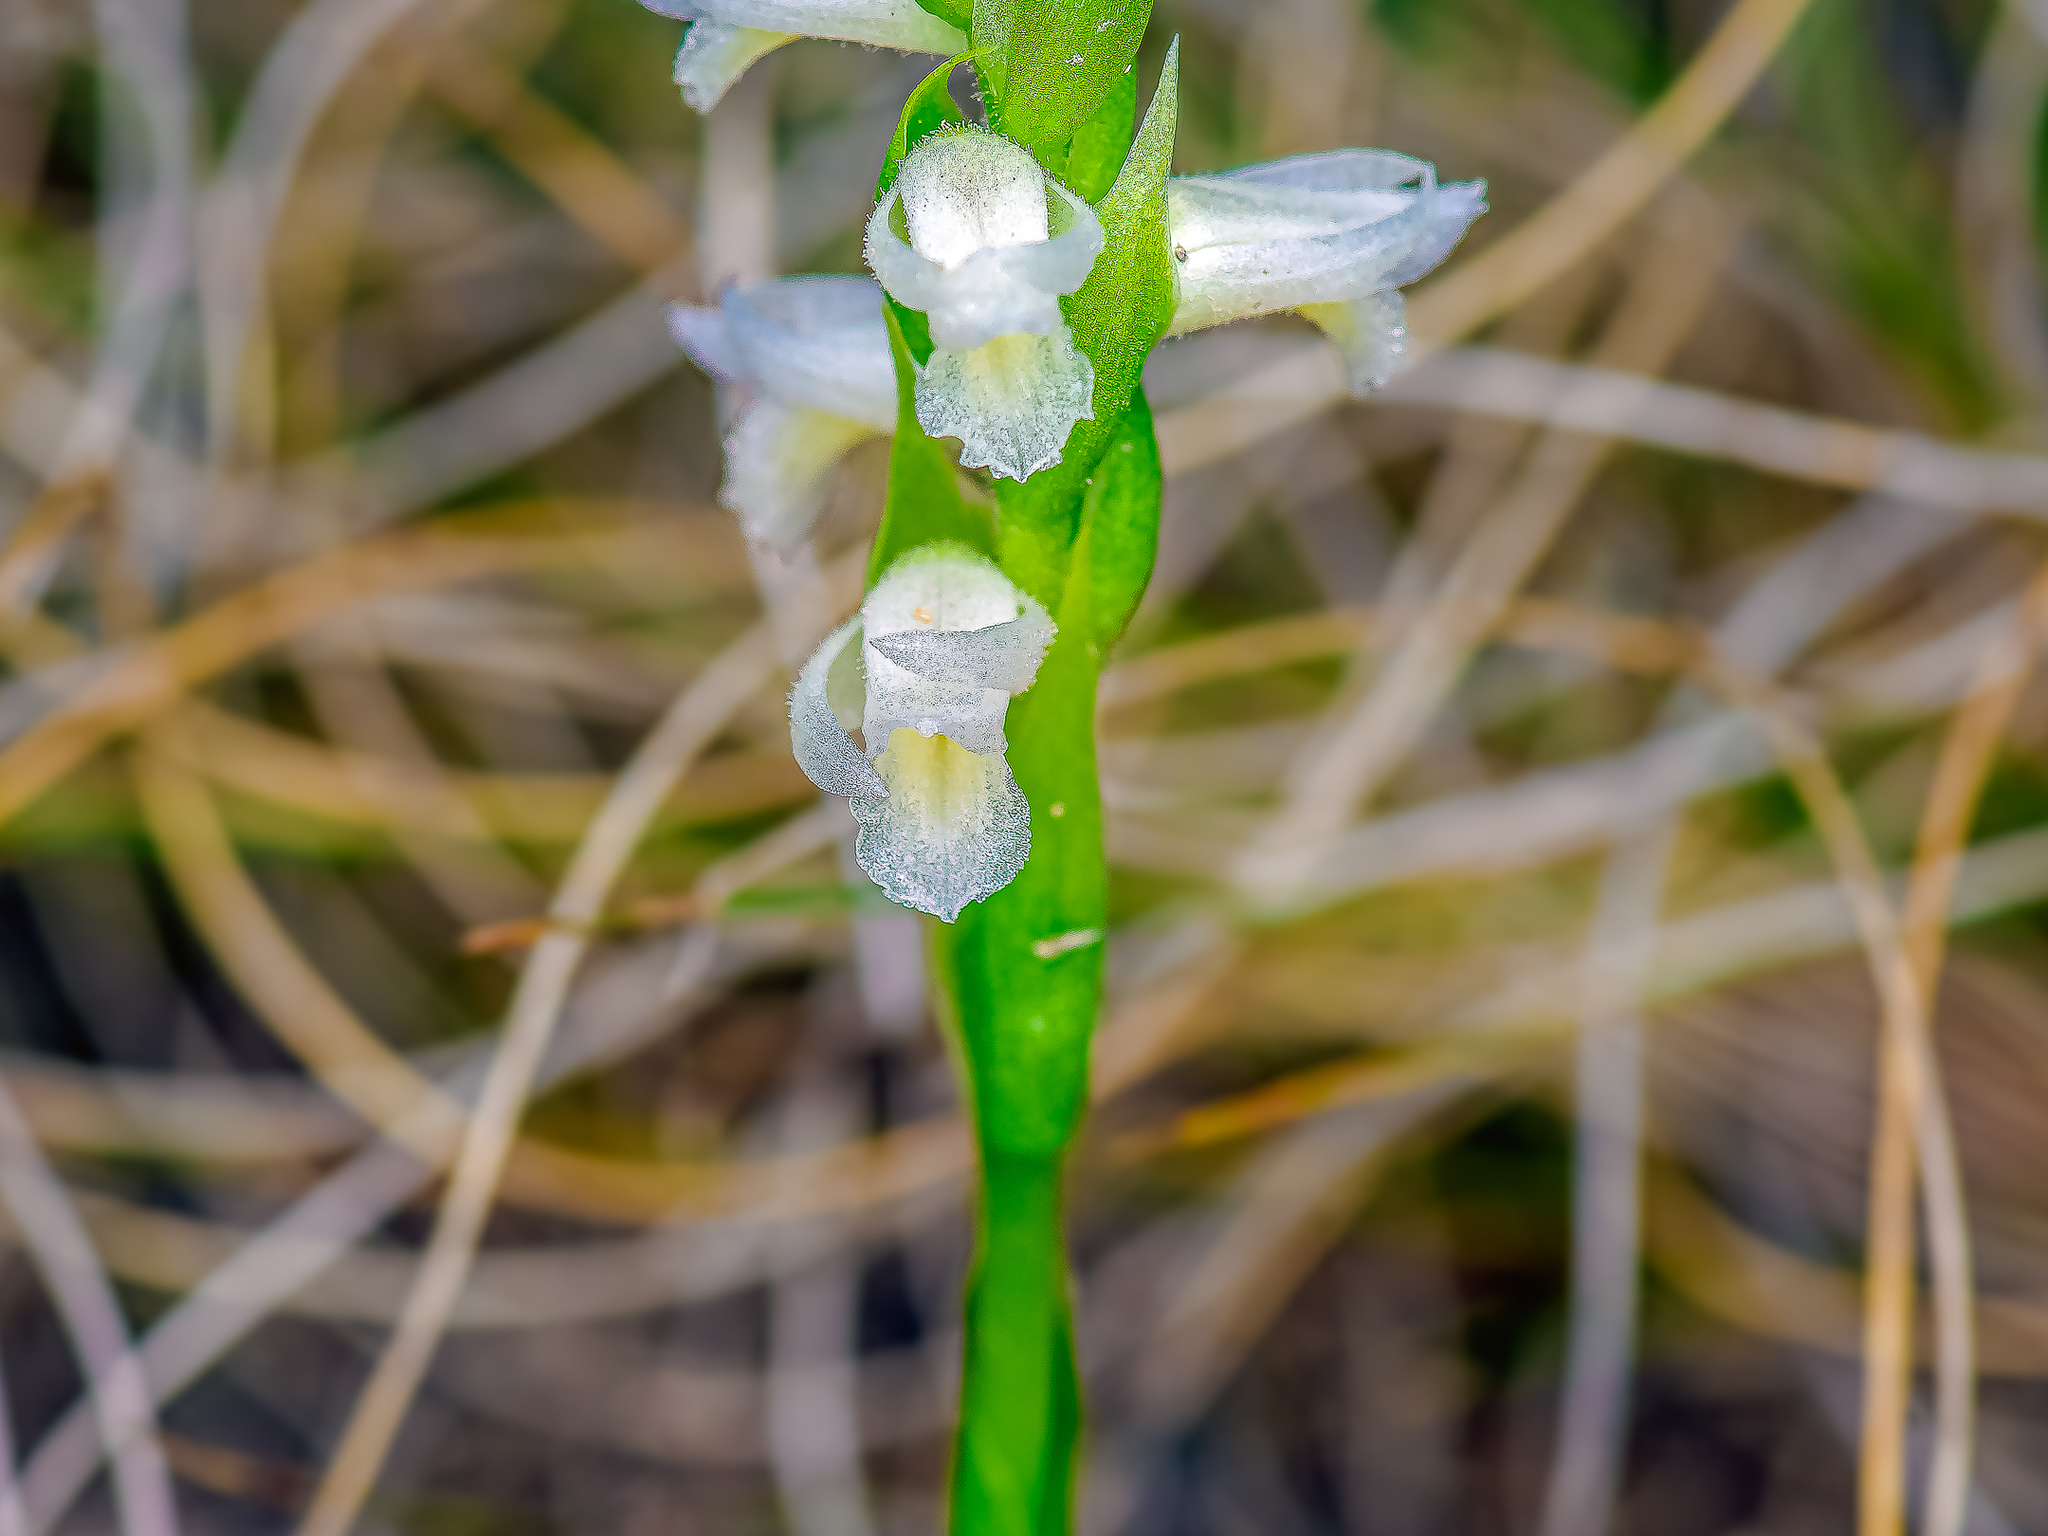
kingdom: Plantae
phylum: Tracheophyta
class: Liliopsida
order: Asparagales
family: Orchidaceae
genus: Spiranthes
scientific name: Spiranthes magnicamporum
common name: Great plains ladies'-tresses
